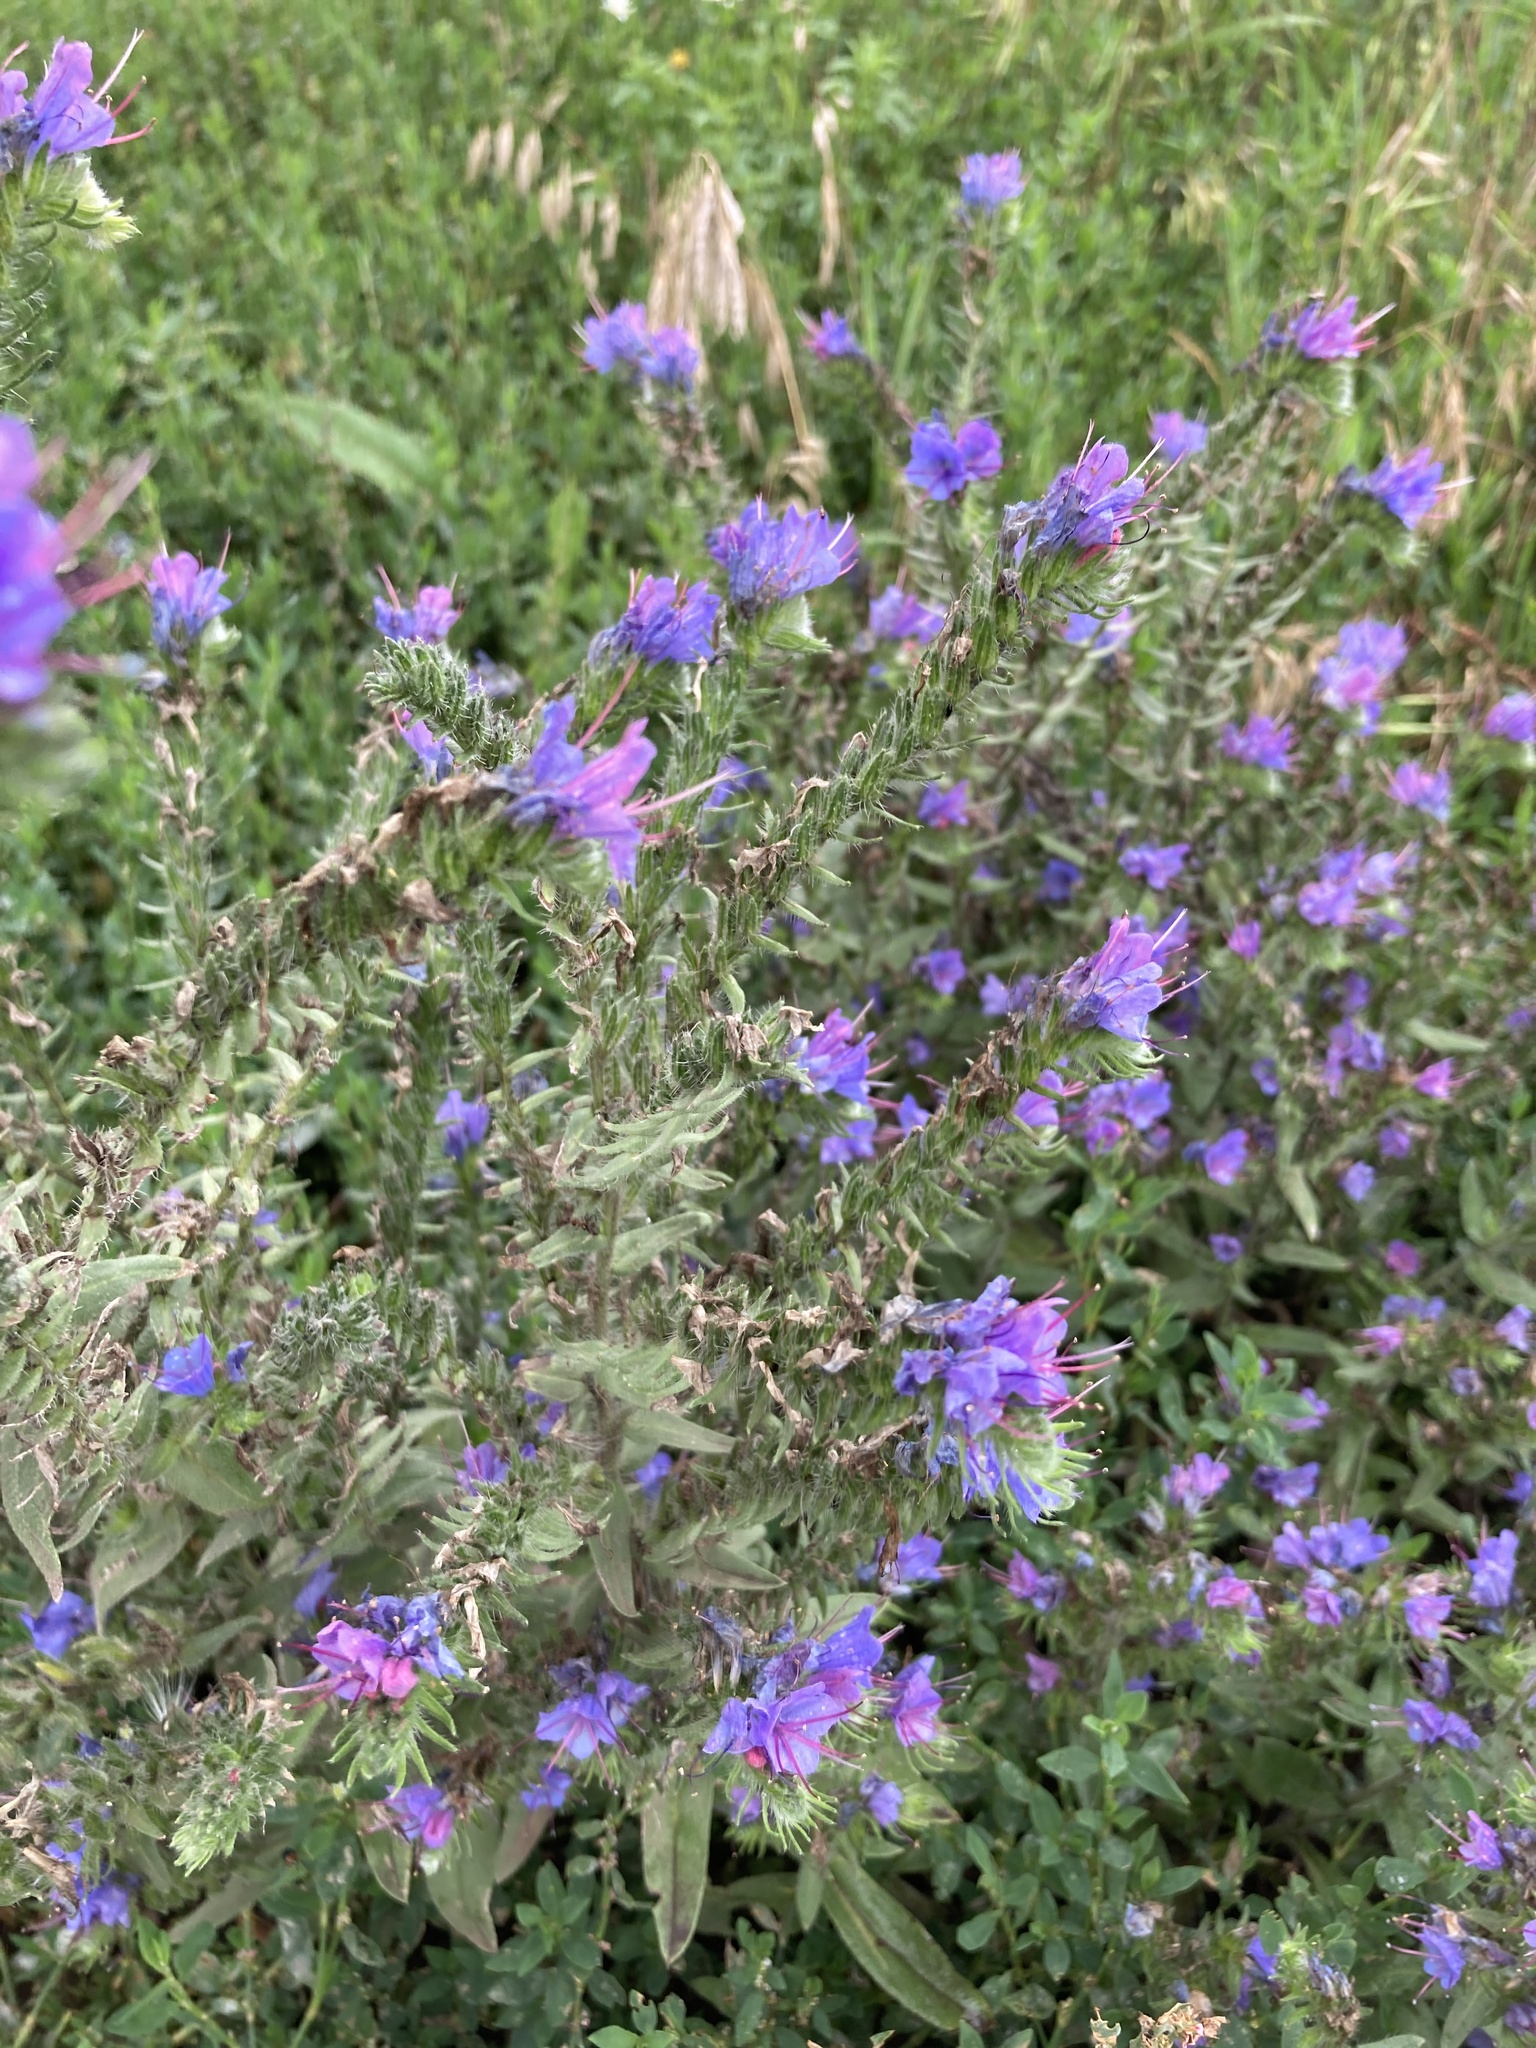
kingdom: Plantae
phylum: Tracheophyta
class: Magnoliopsida
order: Boraginales
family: Boraginaceae
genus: Echium
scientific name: Echium vulgare
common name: Common viper's bugloss
